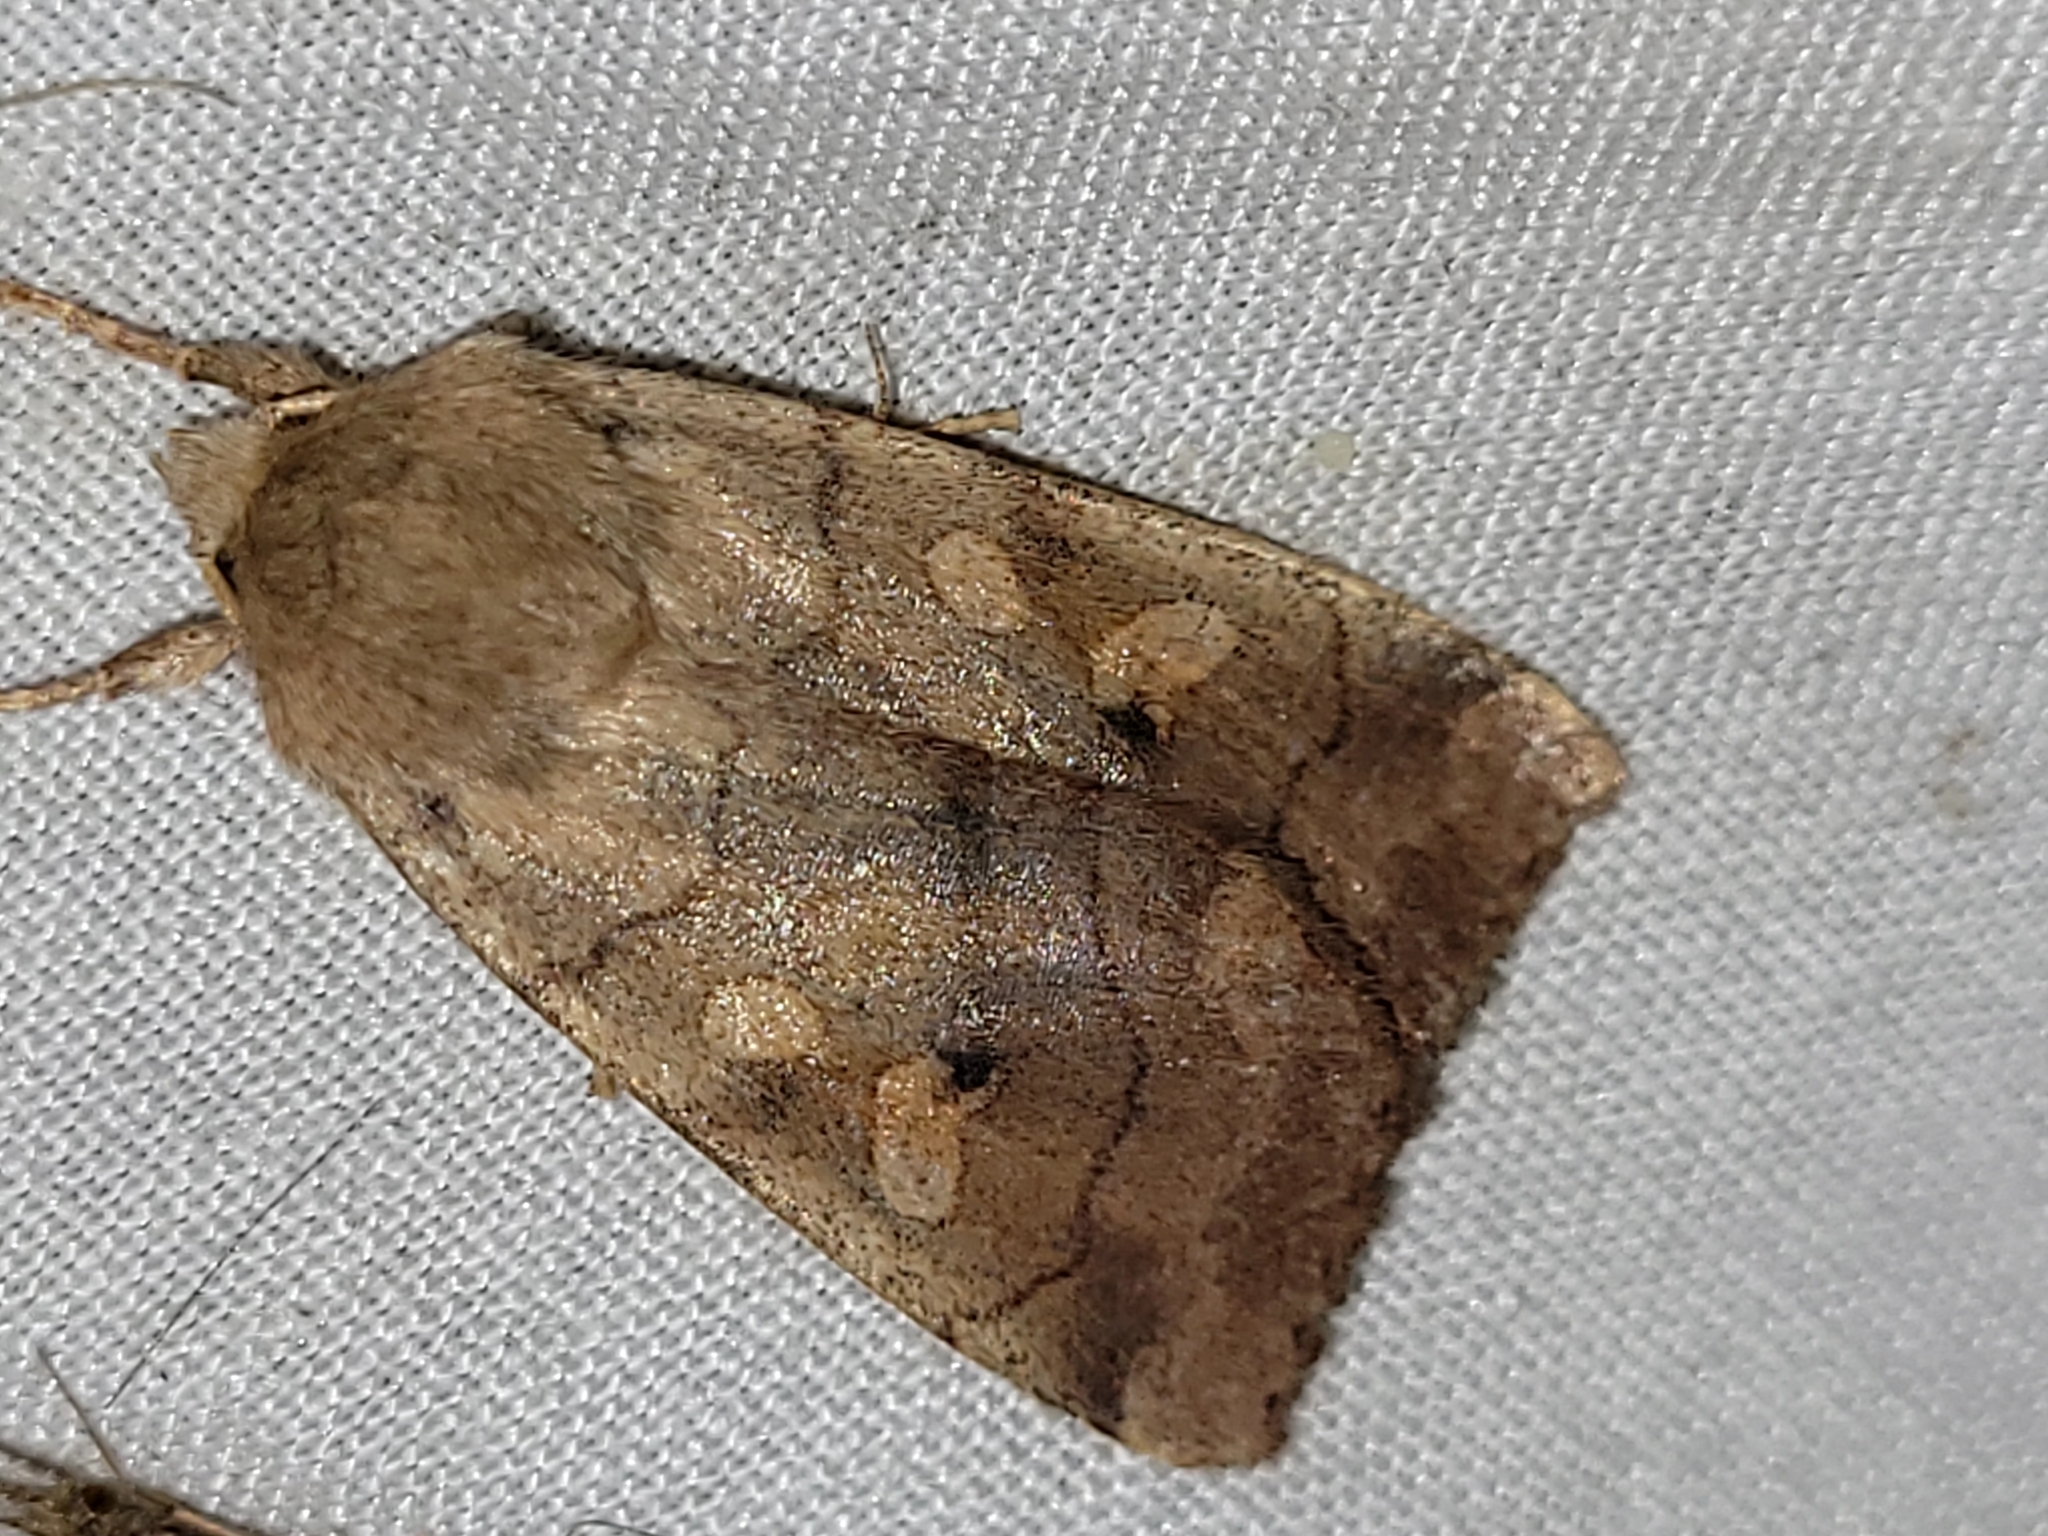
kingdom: Animalia
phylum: Arthropoda
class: Insecta
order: Lepidoptera
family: Noctuidae
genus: Enargia
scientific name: Enargia infumata
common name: Smoked sallow
